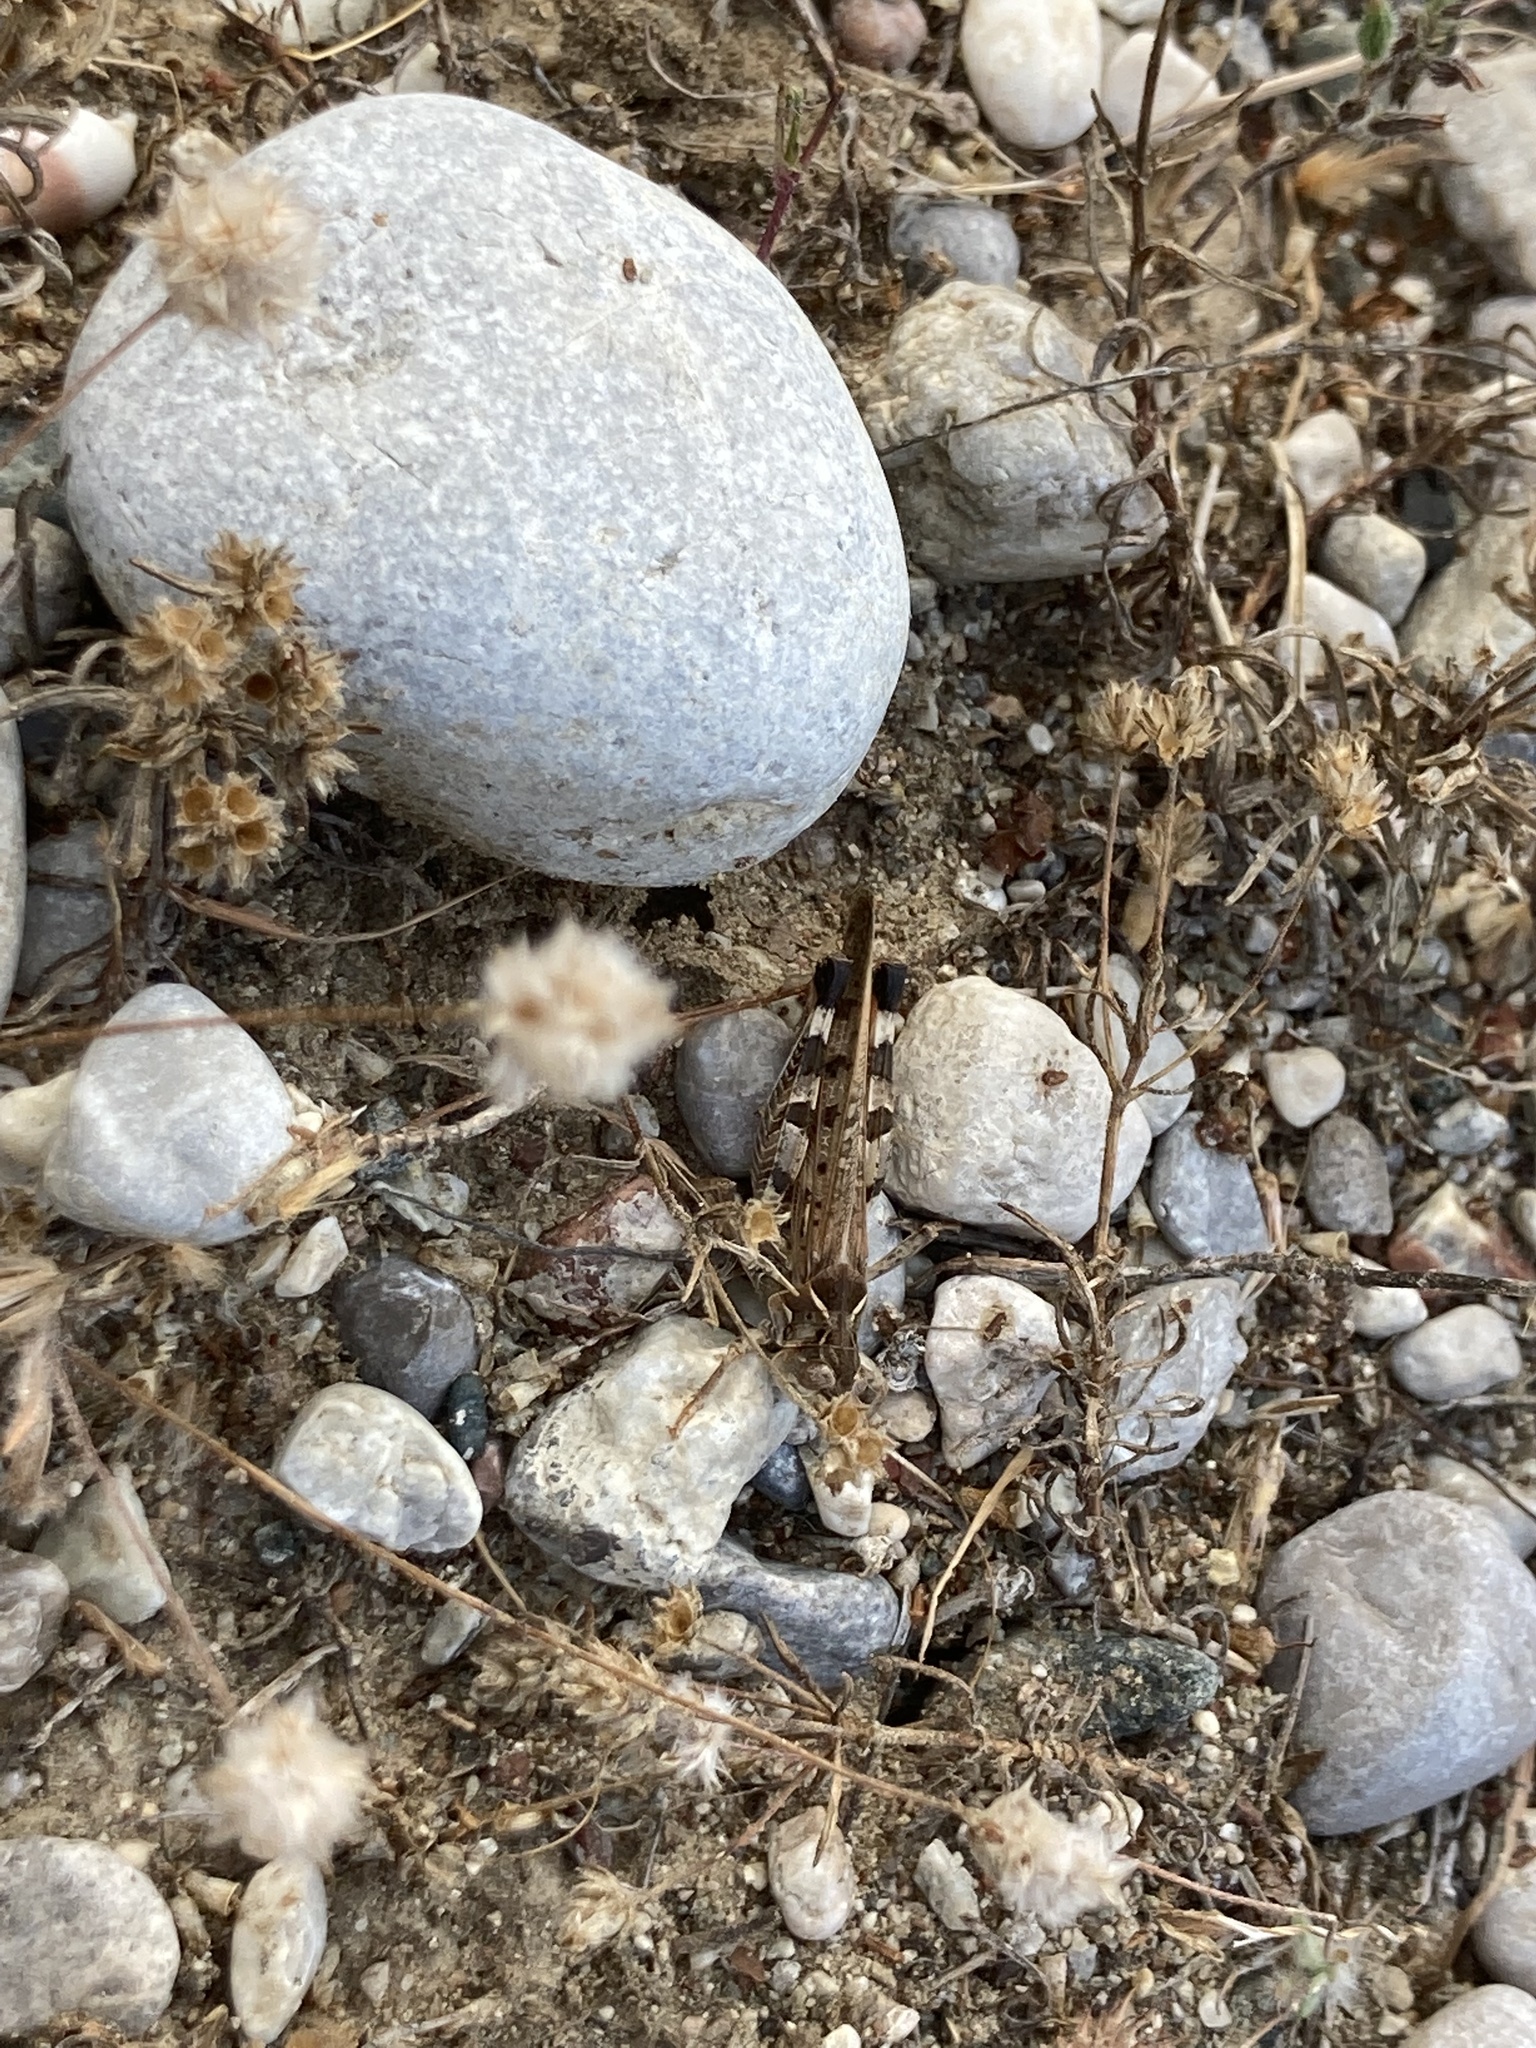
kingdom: Animalia
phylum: Arthropoda
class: Insecta
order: Orthoptera
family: Acrididae
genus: Dociostaurus
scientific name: Dociostaurus maroccanus
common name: Moroccan locust
